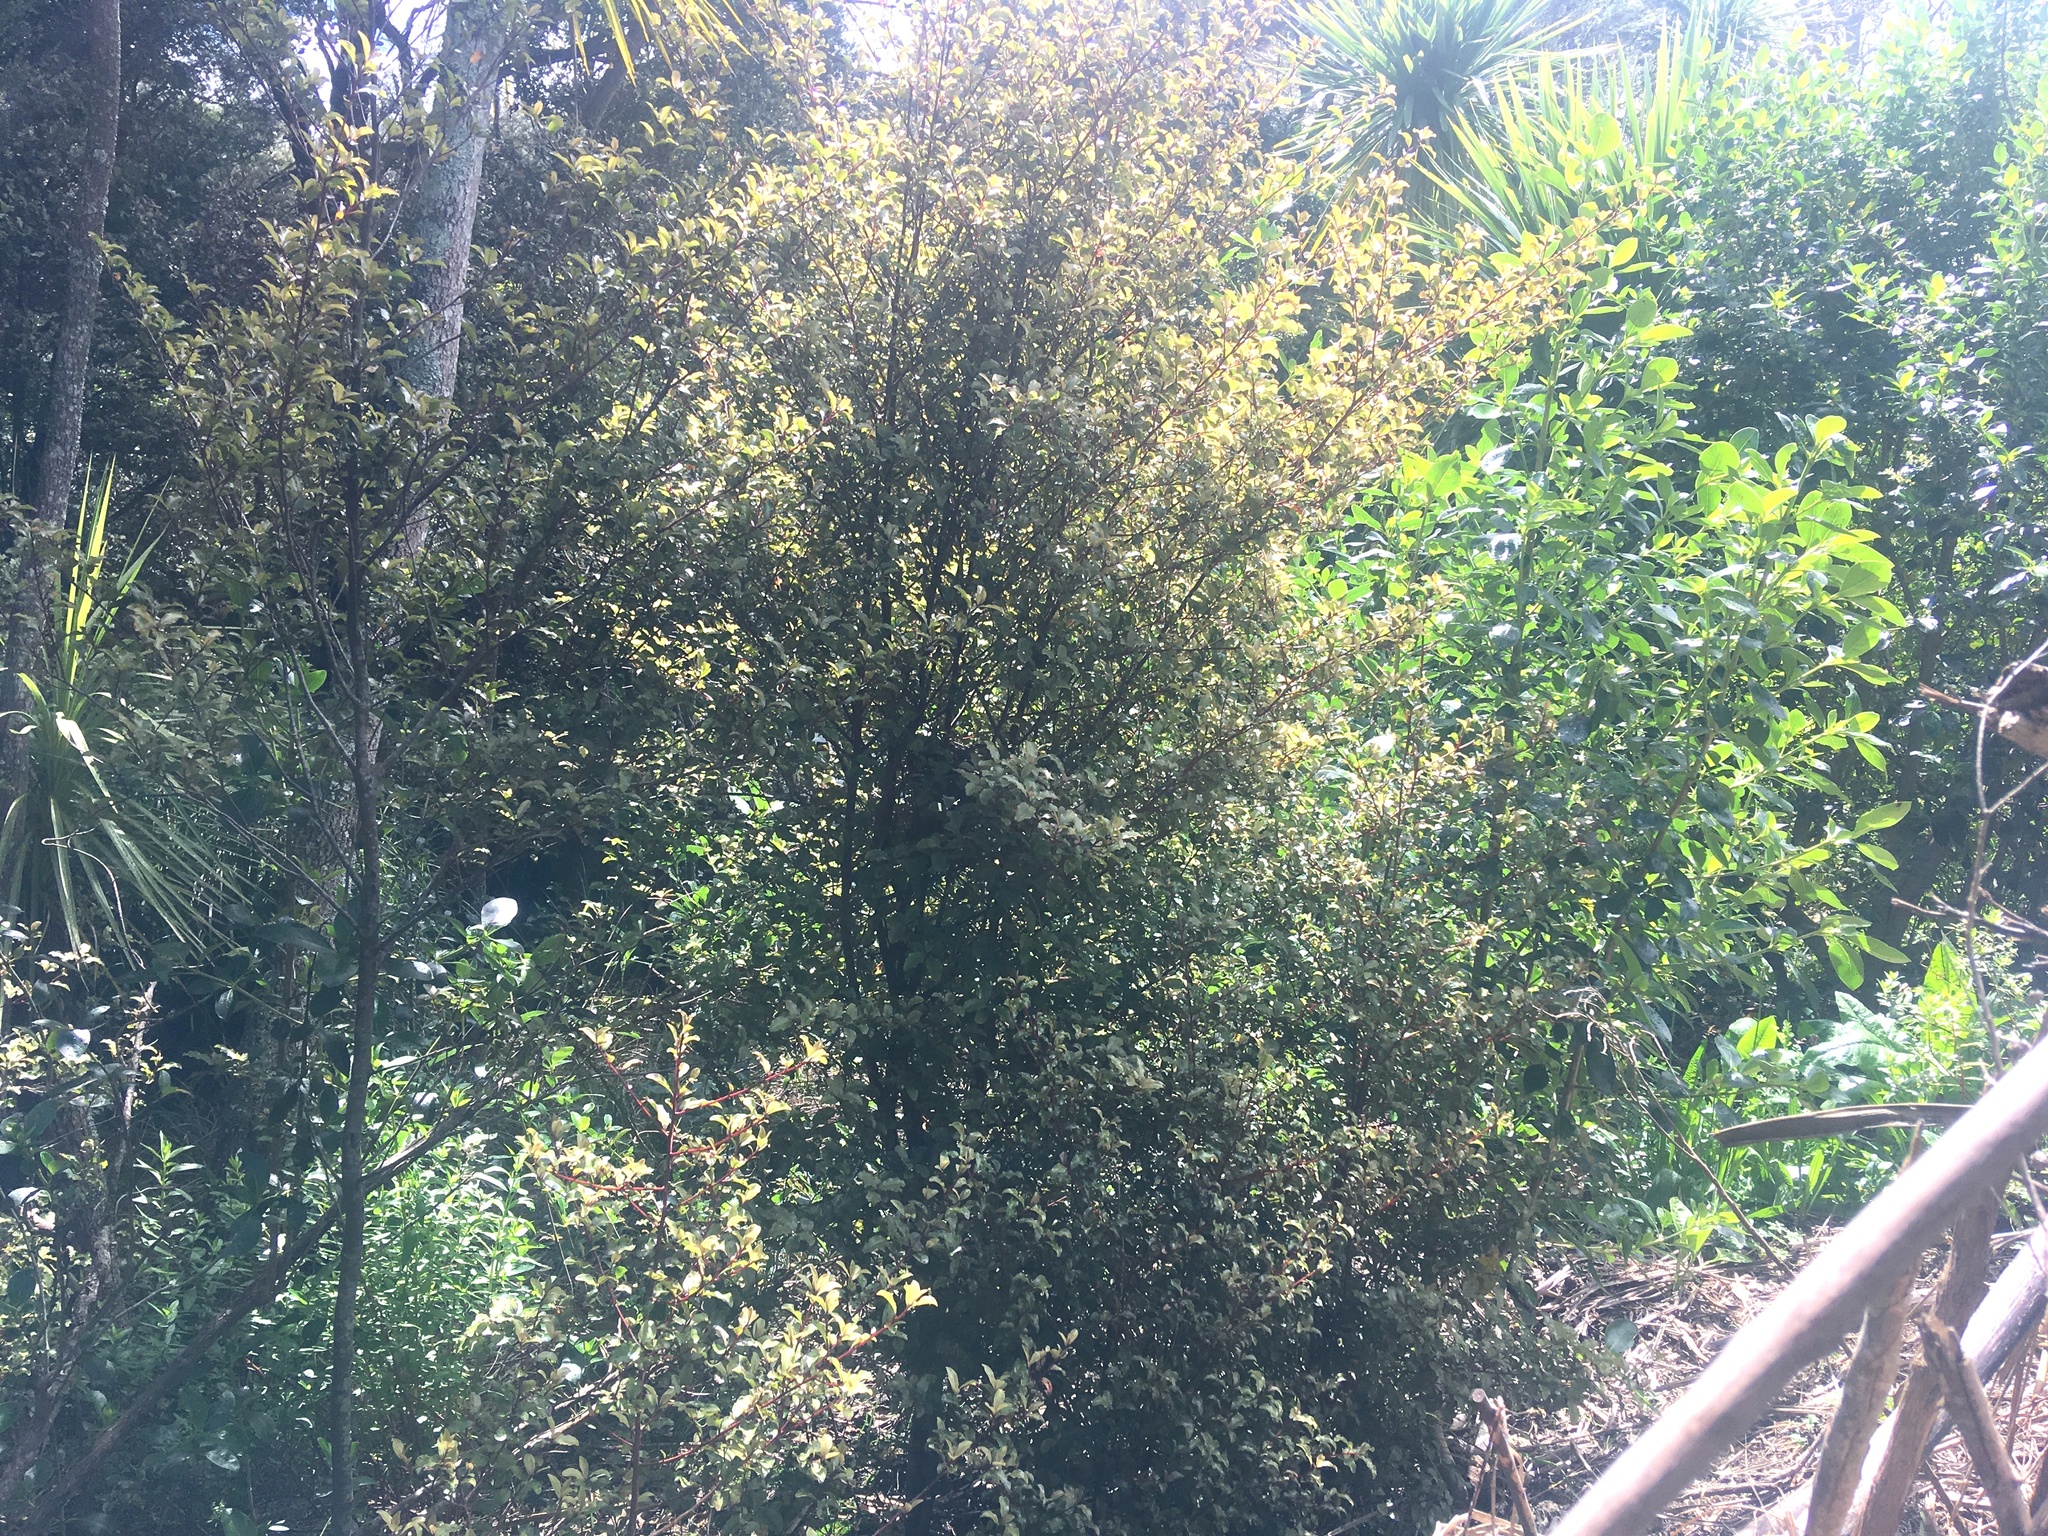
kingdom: Animalia
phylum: Chordata
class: Aves
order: Passeriformes
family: Turdidae
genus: Turdus
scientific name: Turdus merula
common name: Common blackbird
